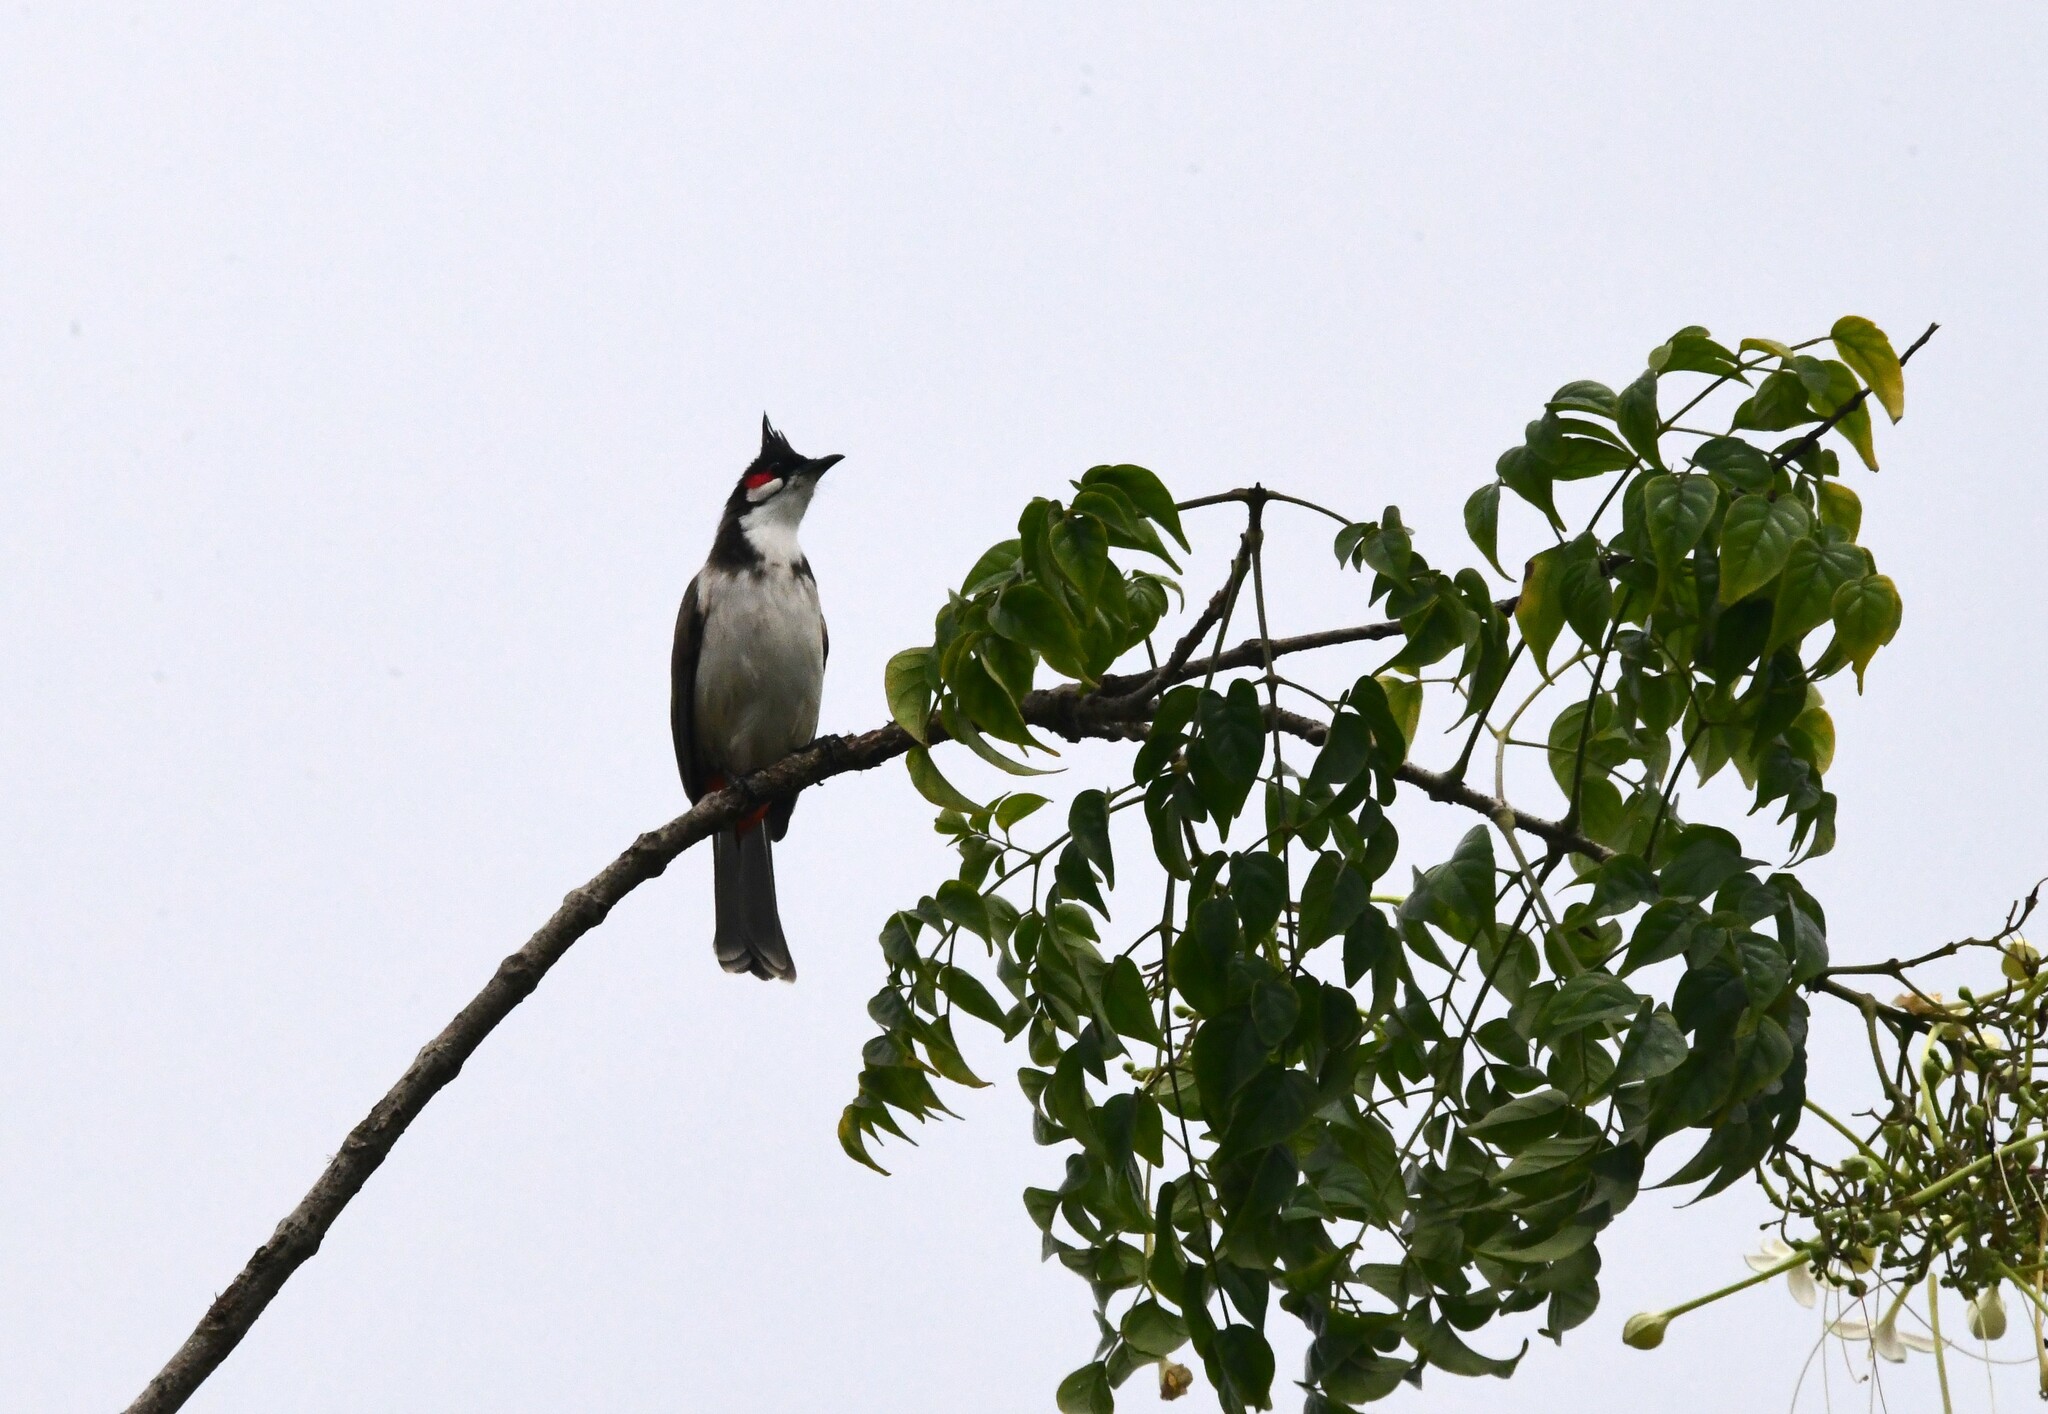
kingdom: Animalia
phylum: Chordata
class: Aves
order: Passeriformes
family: Pycnonotidae
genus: Pycnonotus
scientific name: Pycnonotus jocosus
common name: Red-whiskered bulbul
